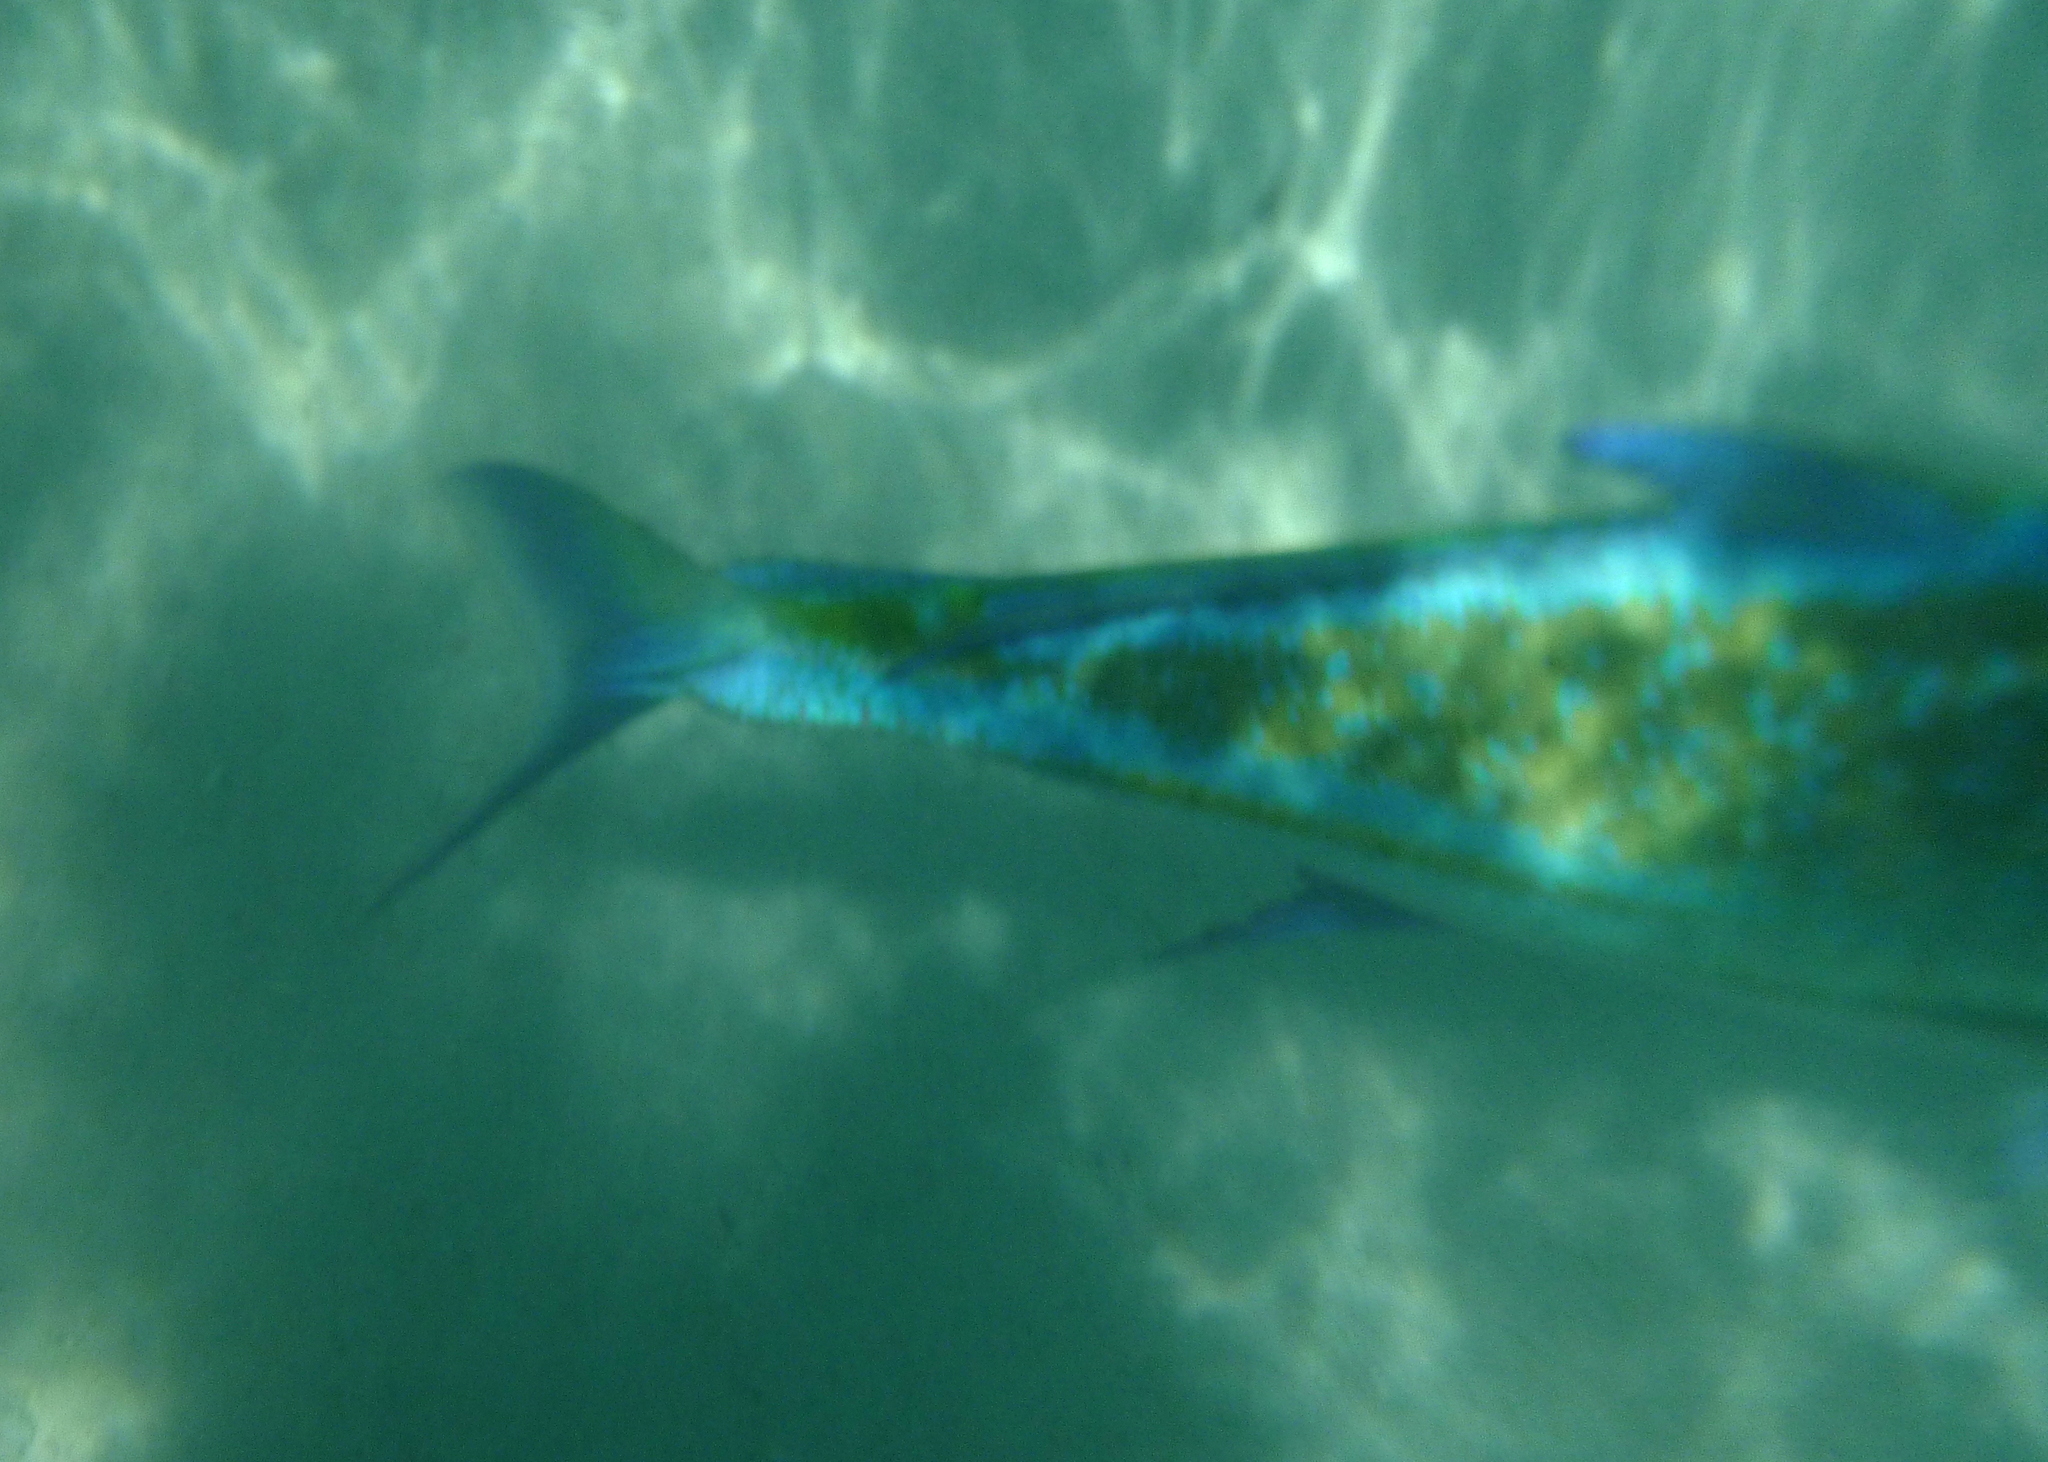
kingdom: Animalia
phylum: Chordata
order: Perciformes
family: Carangidae
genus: Caranx
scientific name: Caranx melampygus
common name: Bluefin trevally
